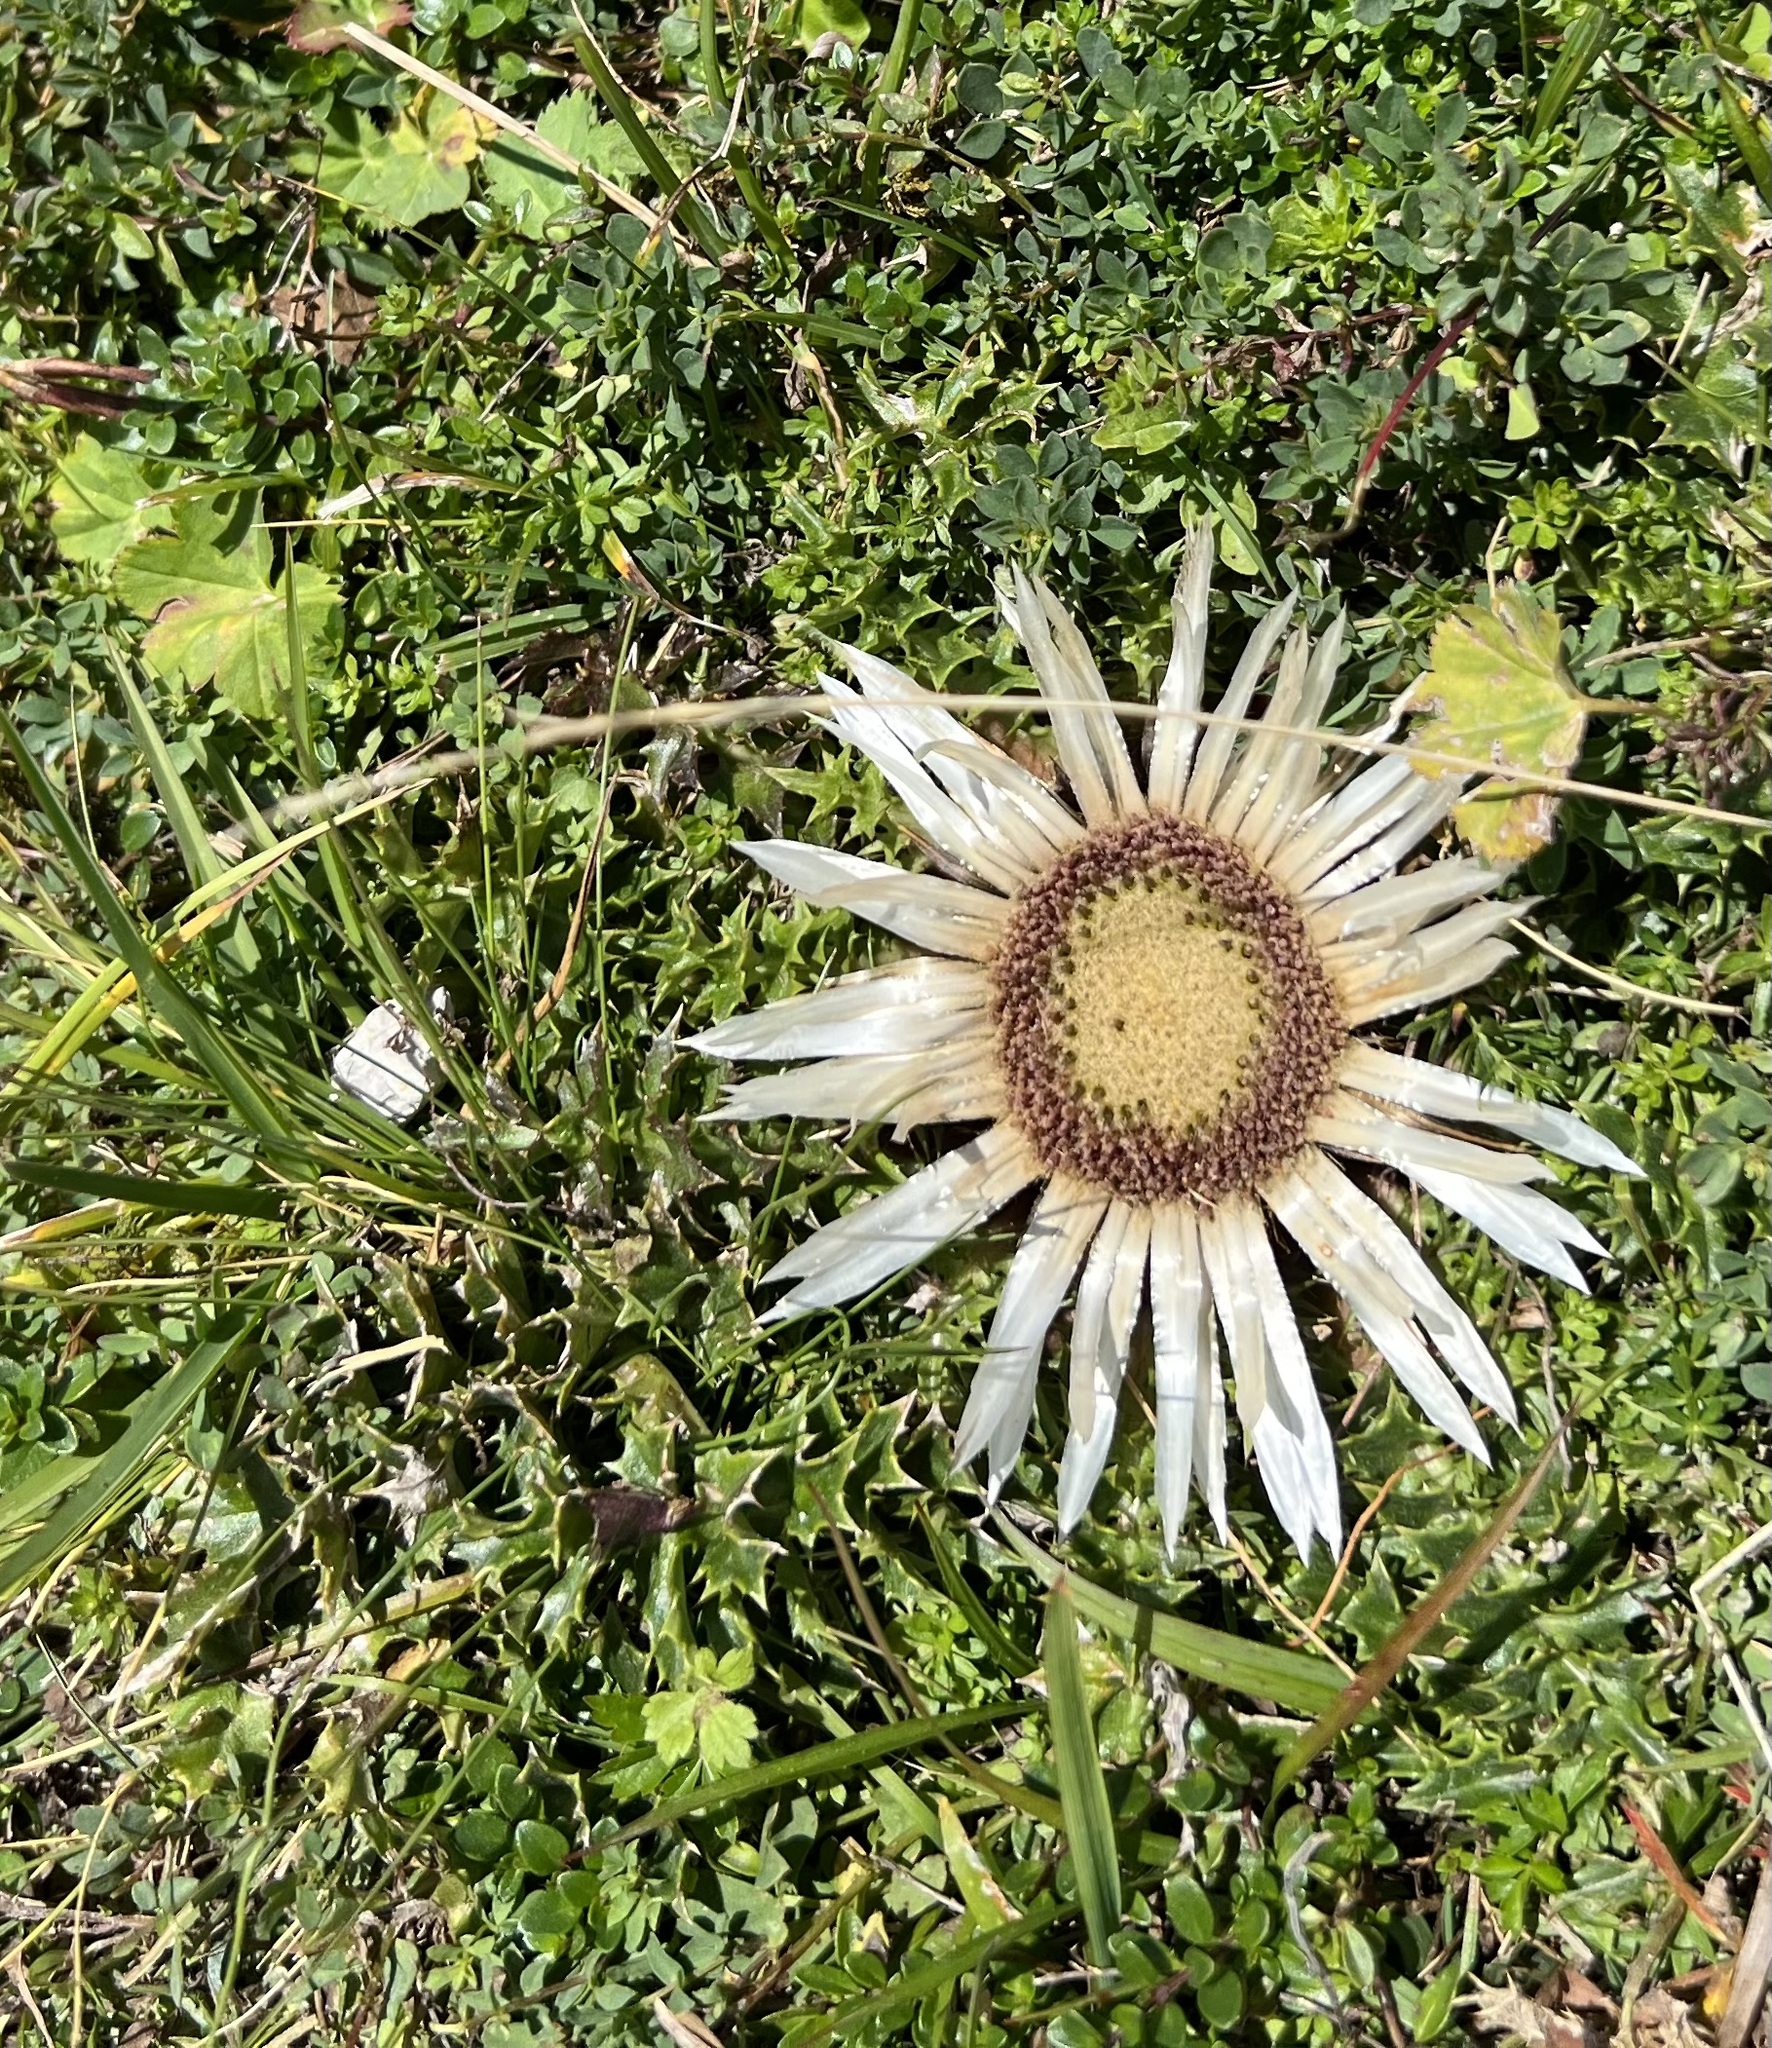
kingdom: Plantae
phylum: Tracheophyta
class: Magnoliopsida
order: Asterales
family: Asteraceae
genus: Carlina
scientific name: Carlina acaulis
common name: Stemless carline thistle
